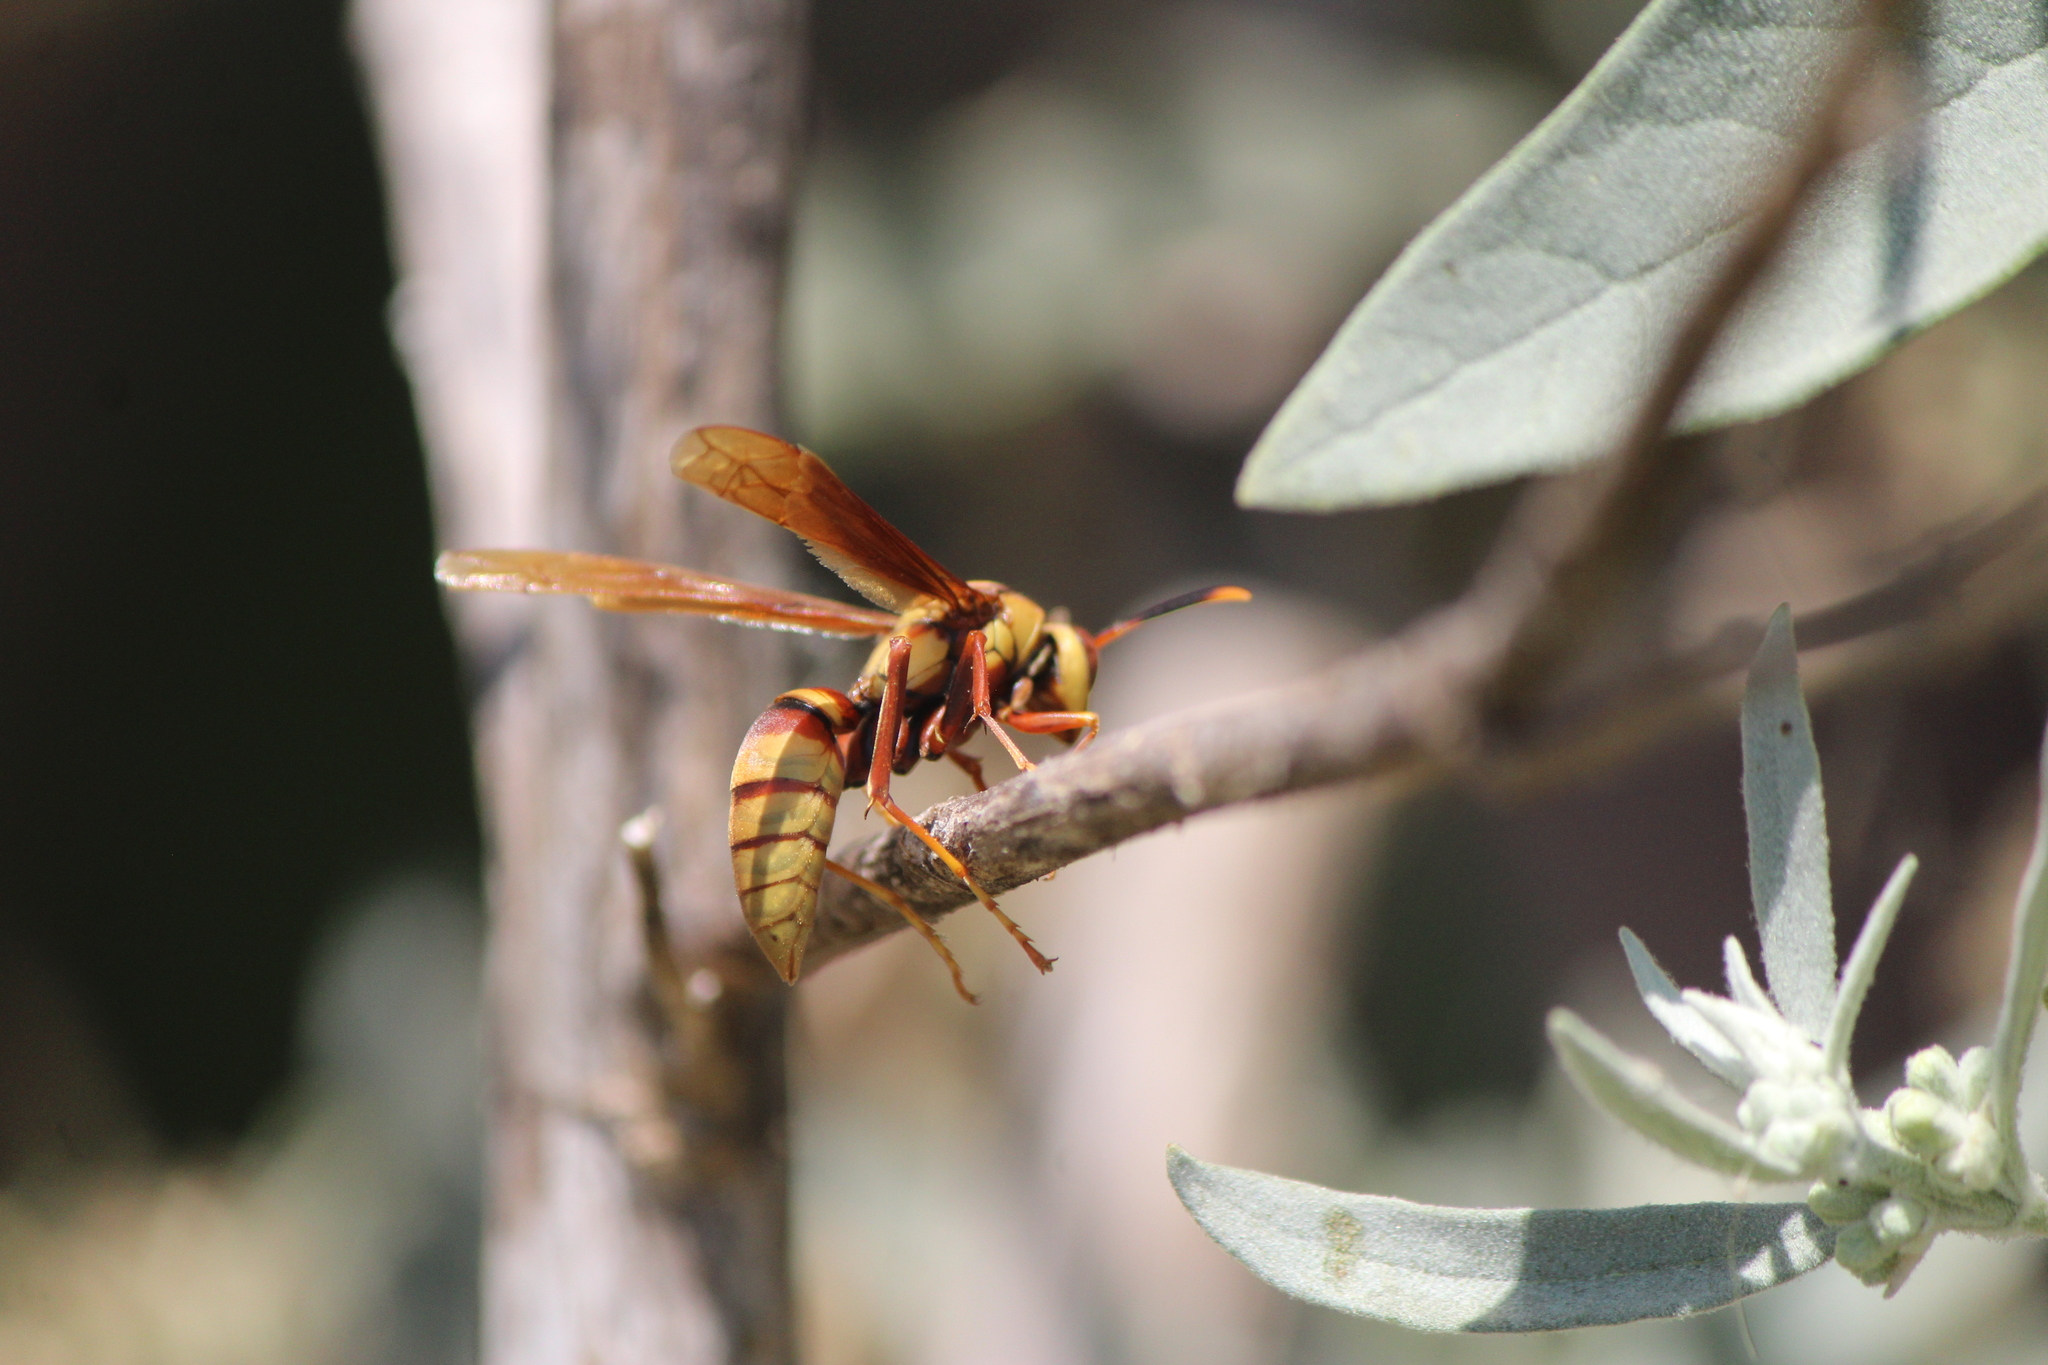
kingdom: Animalia
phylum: Arthropoda
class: Insecta
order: Hymenoptera
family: Eumenidae
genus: Polistes
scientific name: Polistes major
